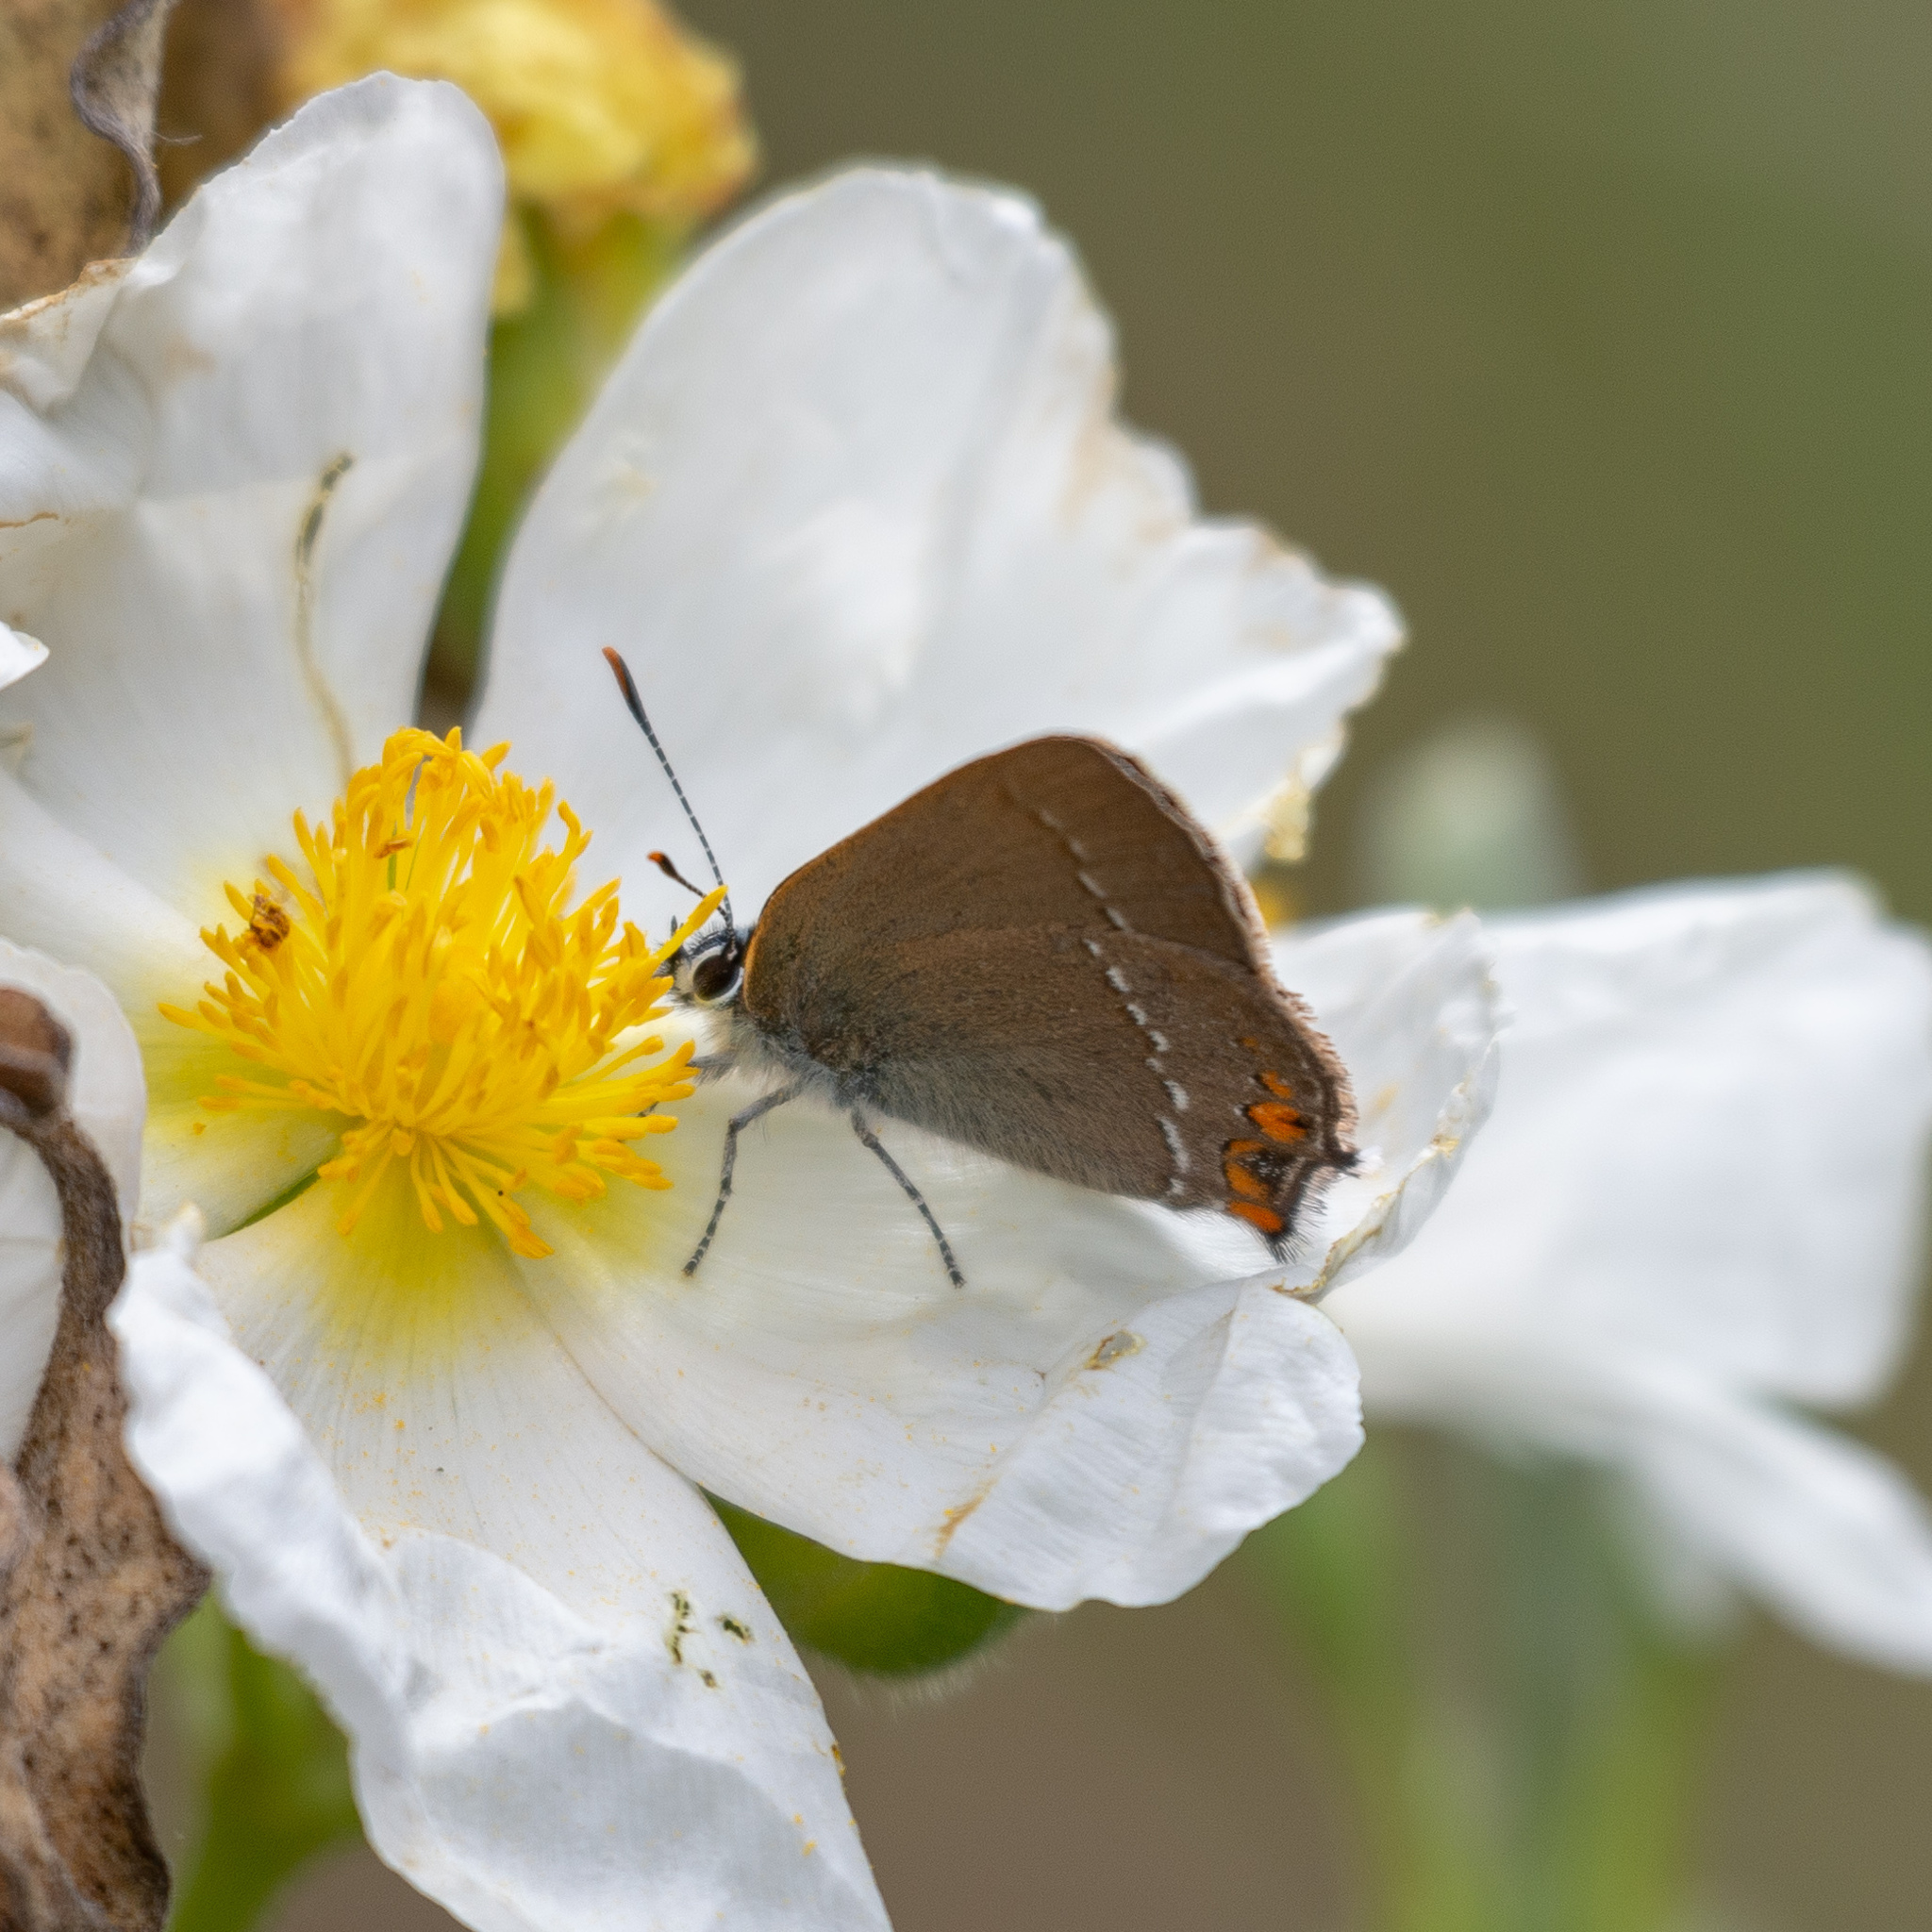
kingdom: Animalia
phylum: Arthropoda
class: Insecta
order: Lepidoptera
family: Lycaenidae
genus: Strymon
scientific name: Strymon acaciae
